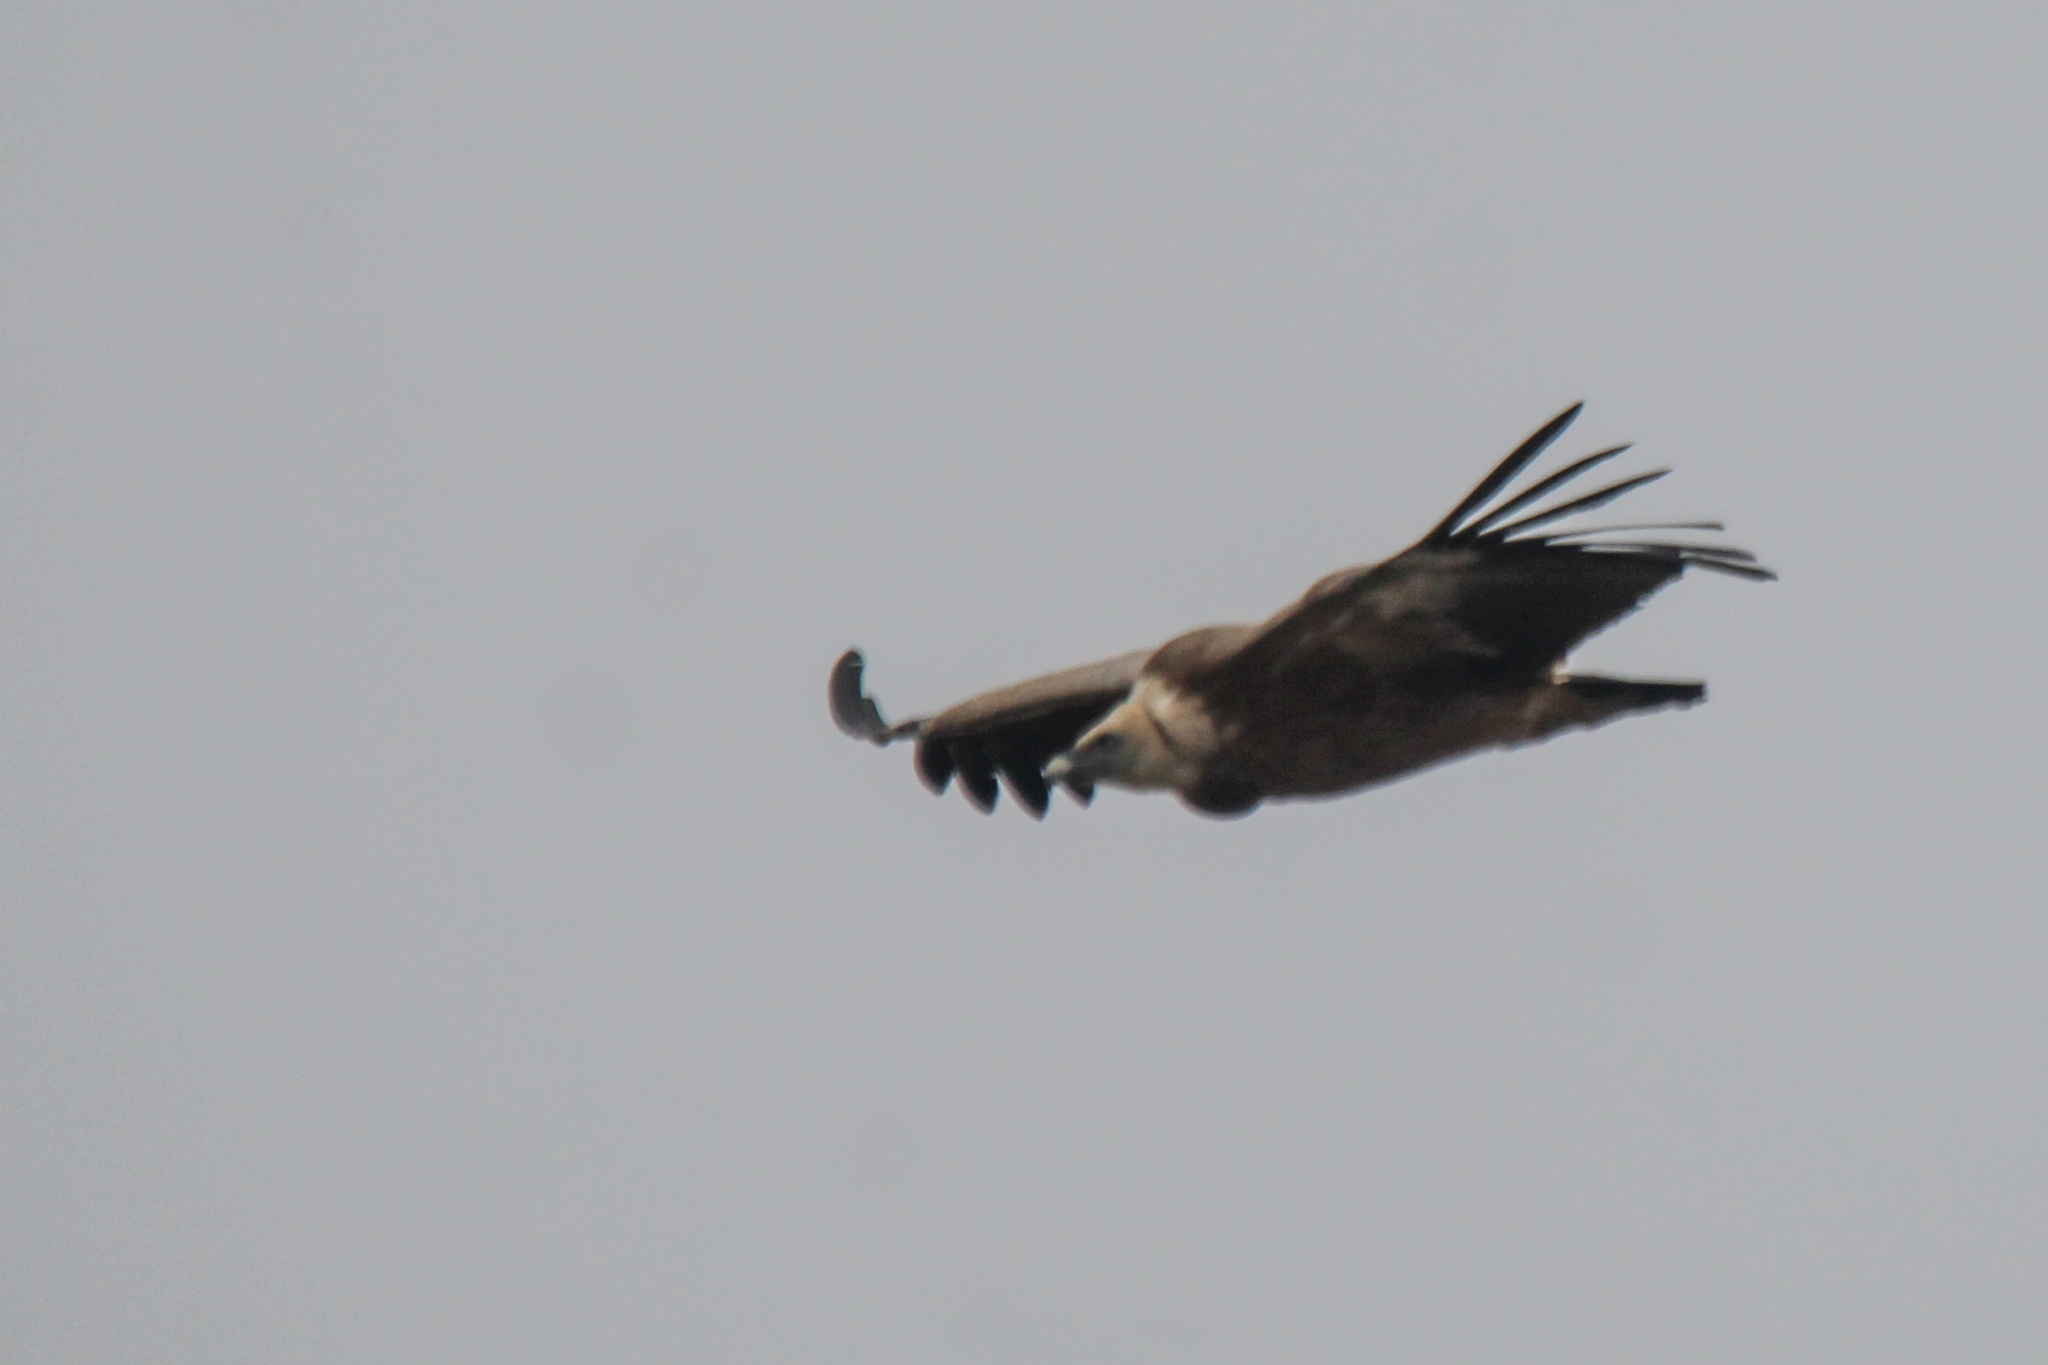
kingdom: Animalia
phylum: Chordata
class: Aves
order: Accipitriformes
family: Accipitridae
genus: Gyps
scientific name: Gyps fulvus
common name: Griffon vulture
